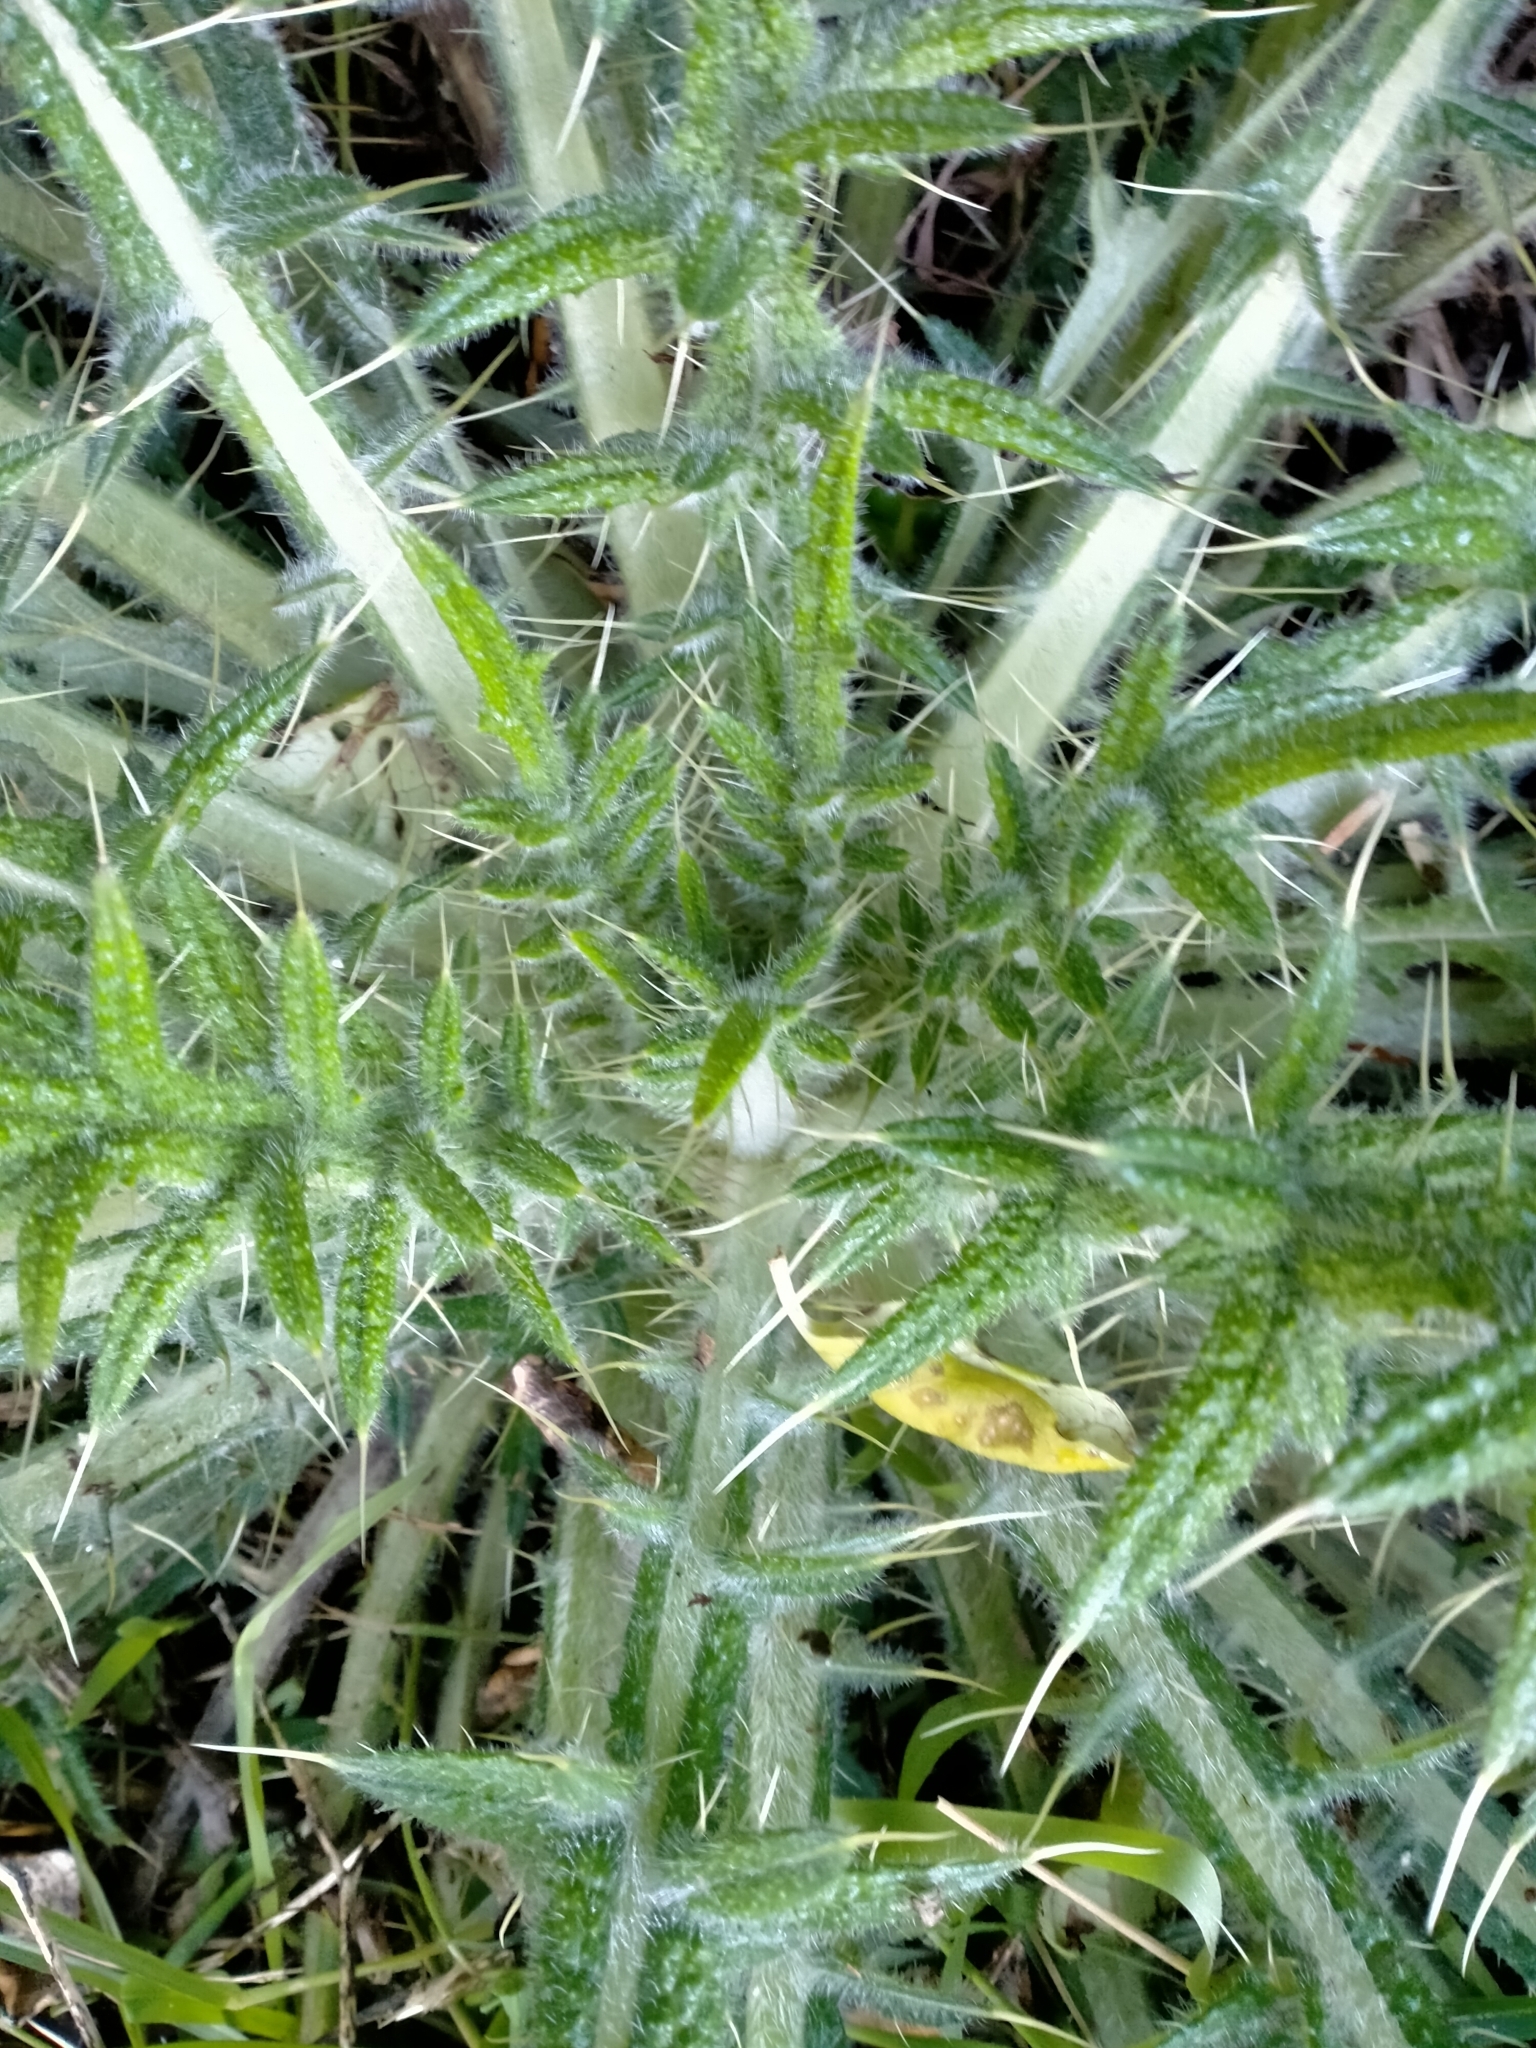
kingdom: Plantae
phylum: Tracheophyta
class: Magnoliopsida
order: Asterales
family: Asteraceae
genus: Cirsium
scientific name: Cirsium vulgare
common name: Bull thistle
